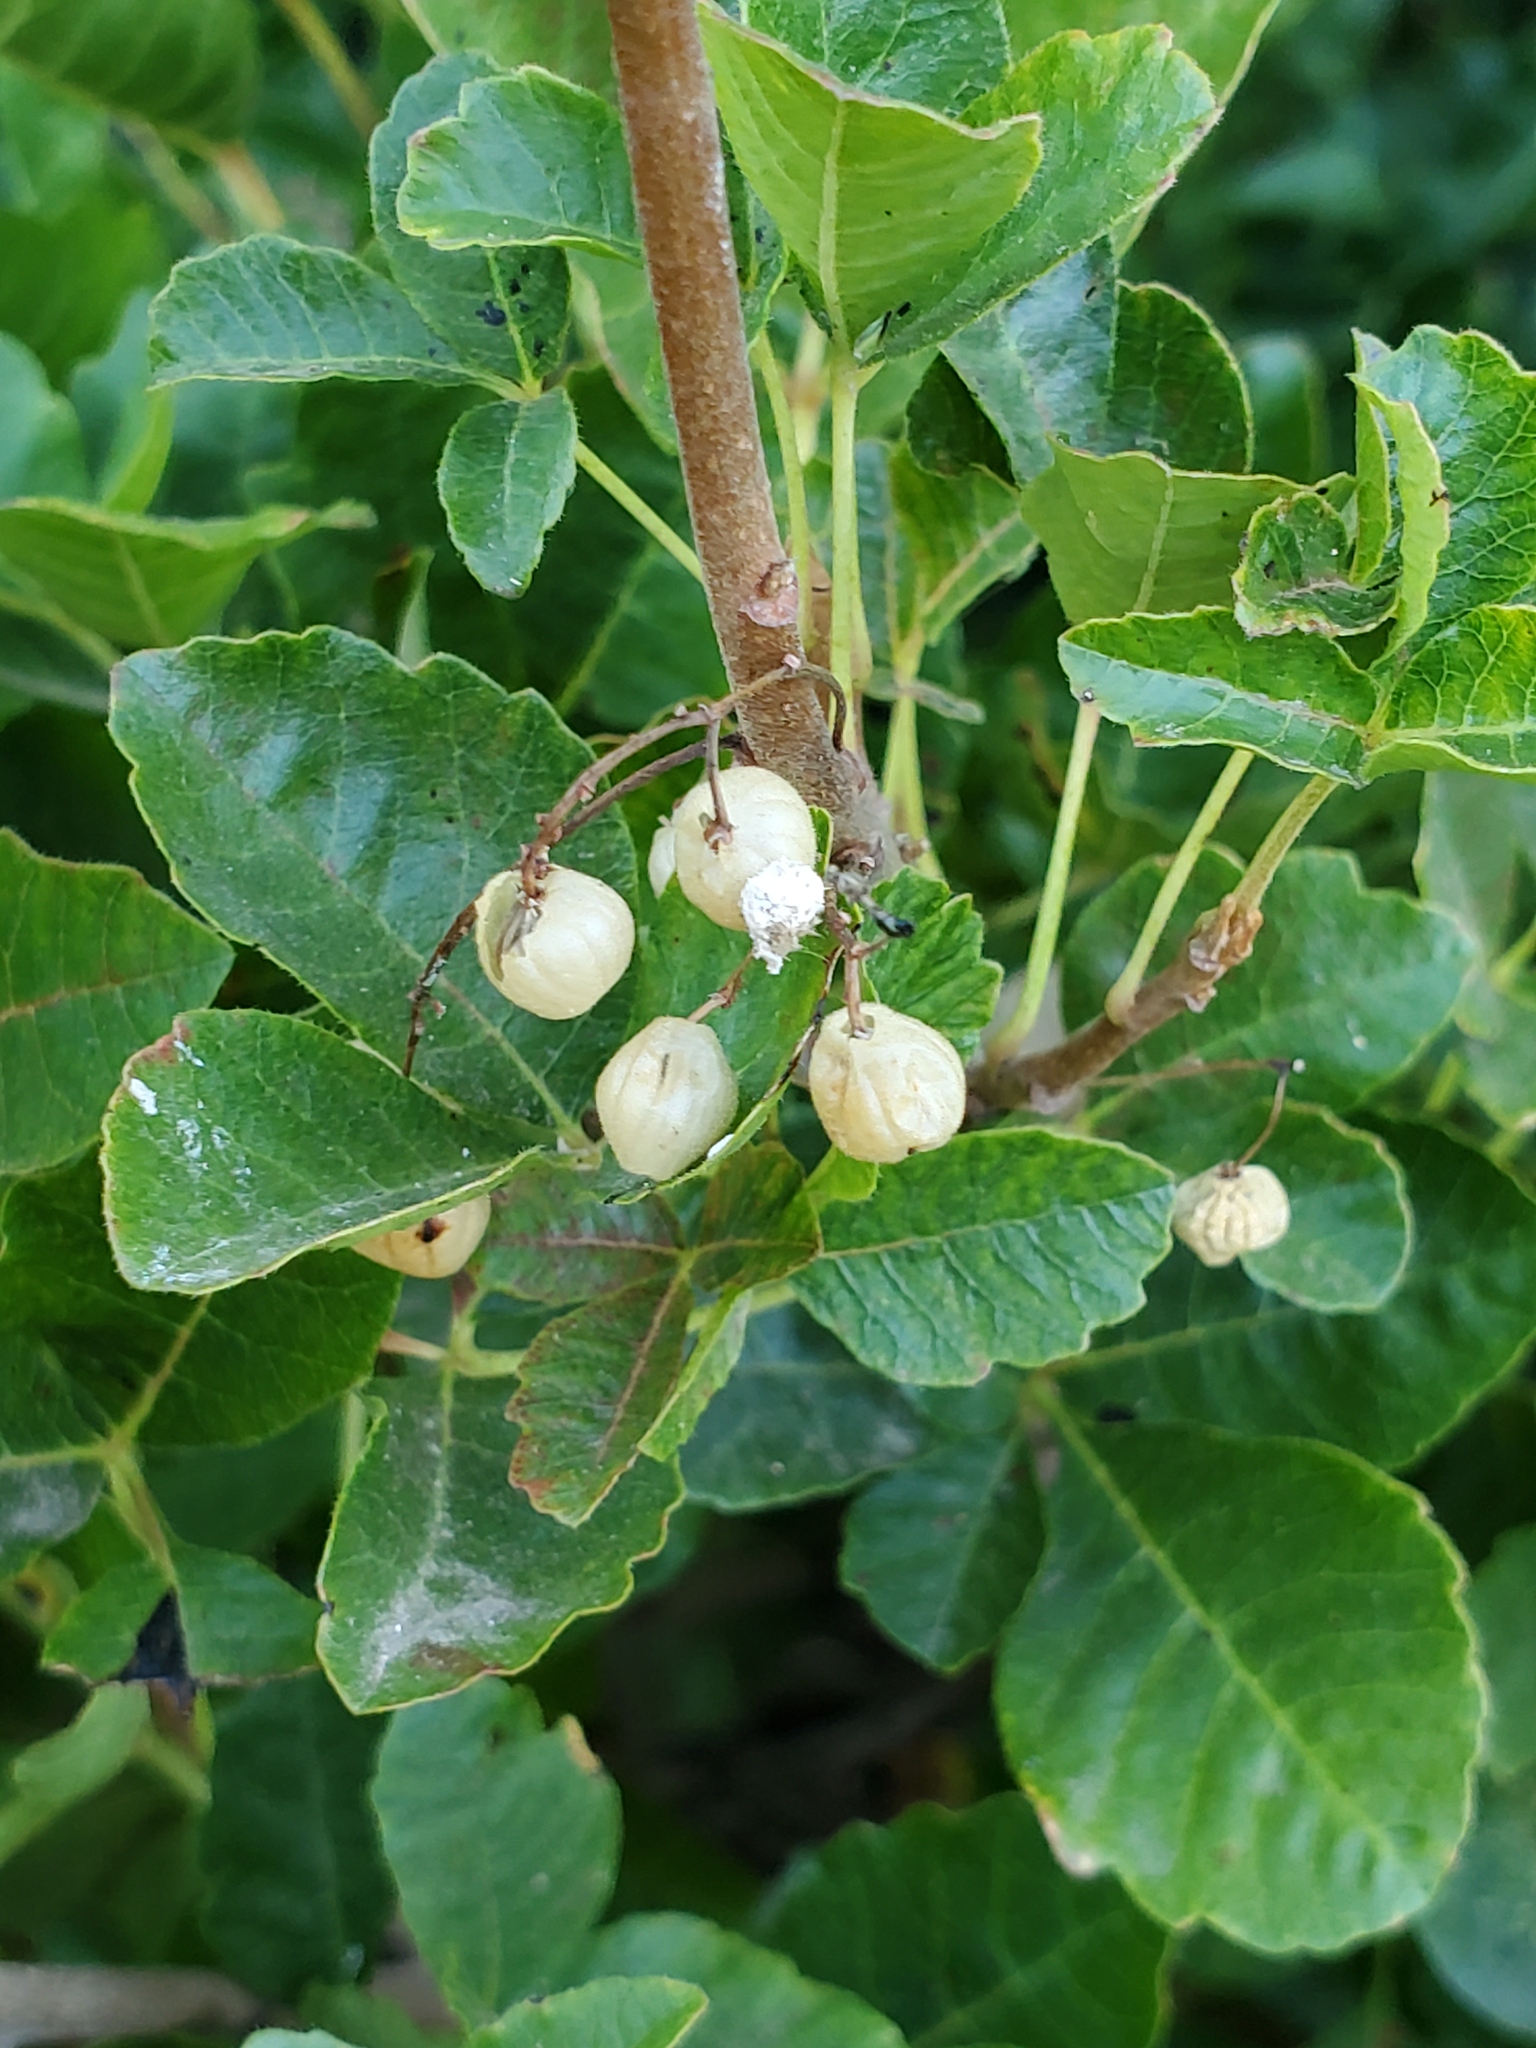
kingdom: Plantae
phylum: Tracheophyta
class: Magnoliopsida
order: Sapindales
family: Anacardiaceae
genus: Toxicodendron
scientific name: Toxicodendron diversilobum
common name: Pacific poison-oak
